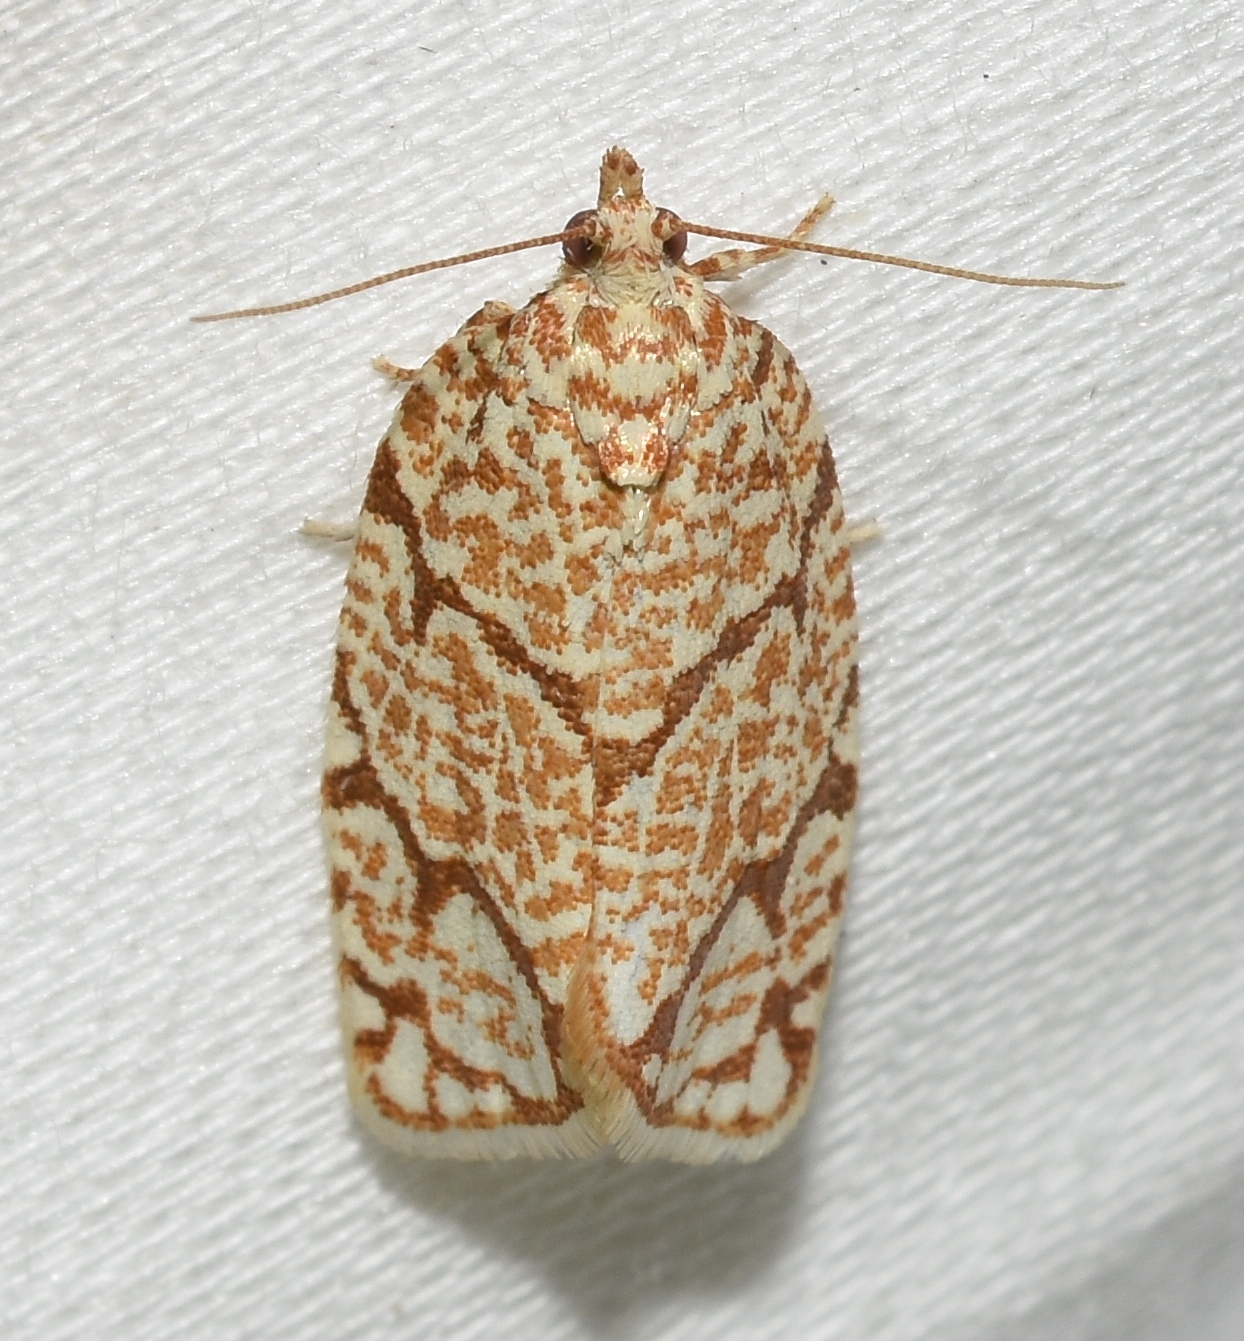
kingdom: Animalia
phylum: Arthropoda
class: Insecta
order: Lepidoptera
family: Tortricidae
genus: Argyrotaenia
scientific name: Argyrotaenia quercifoliana
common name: Yellow-winged oak leafroller moth
